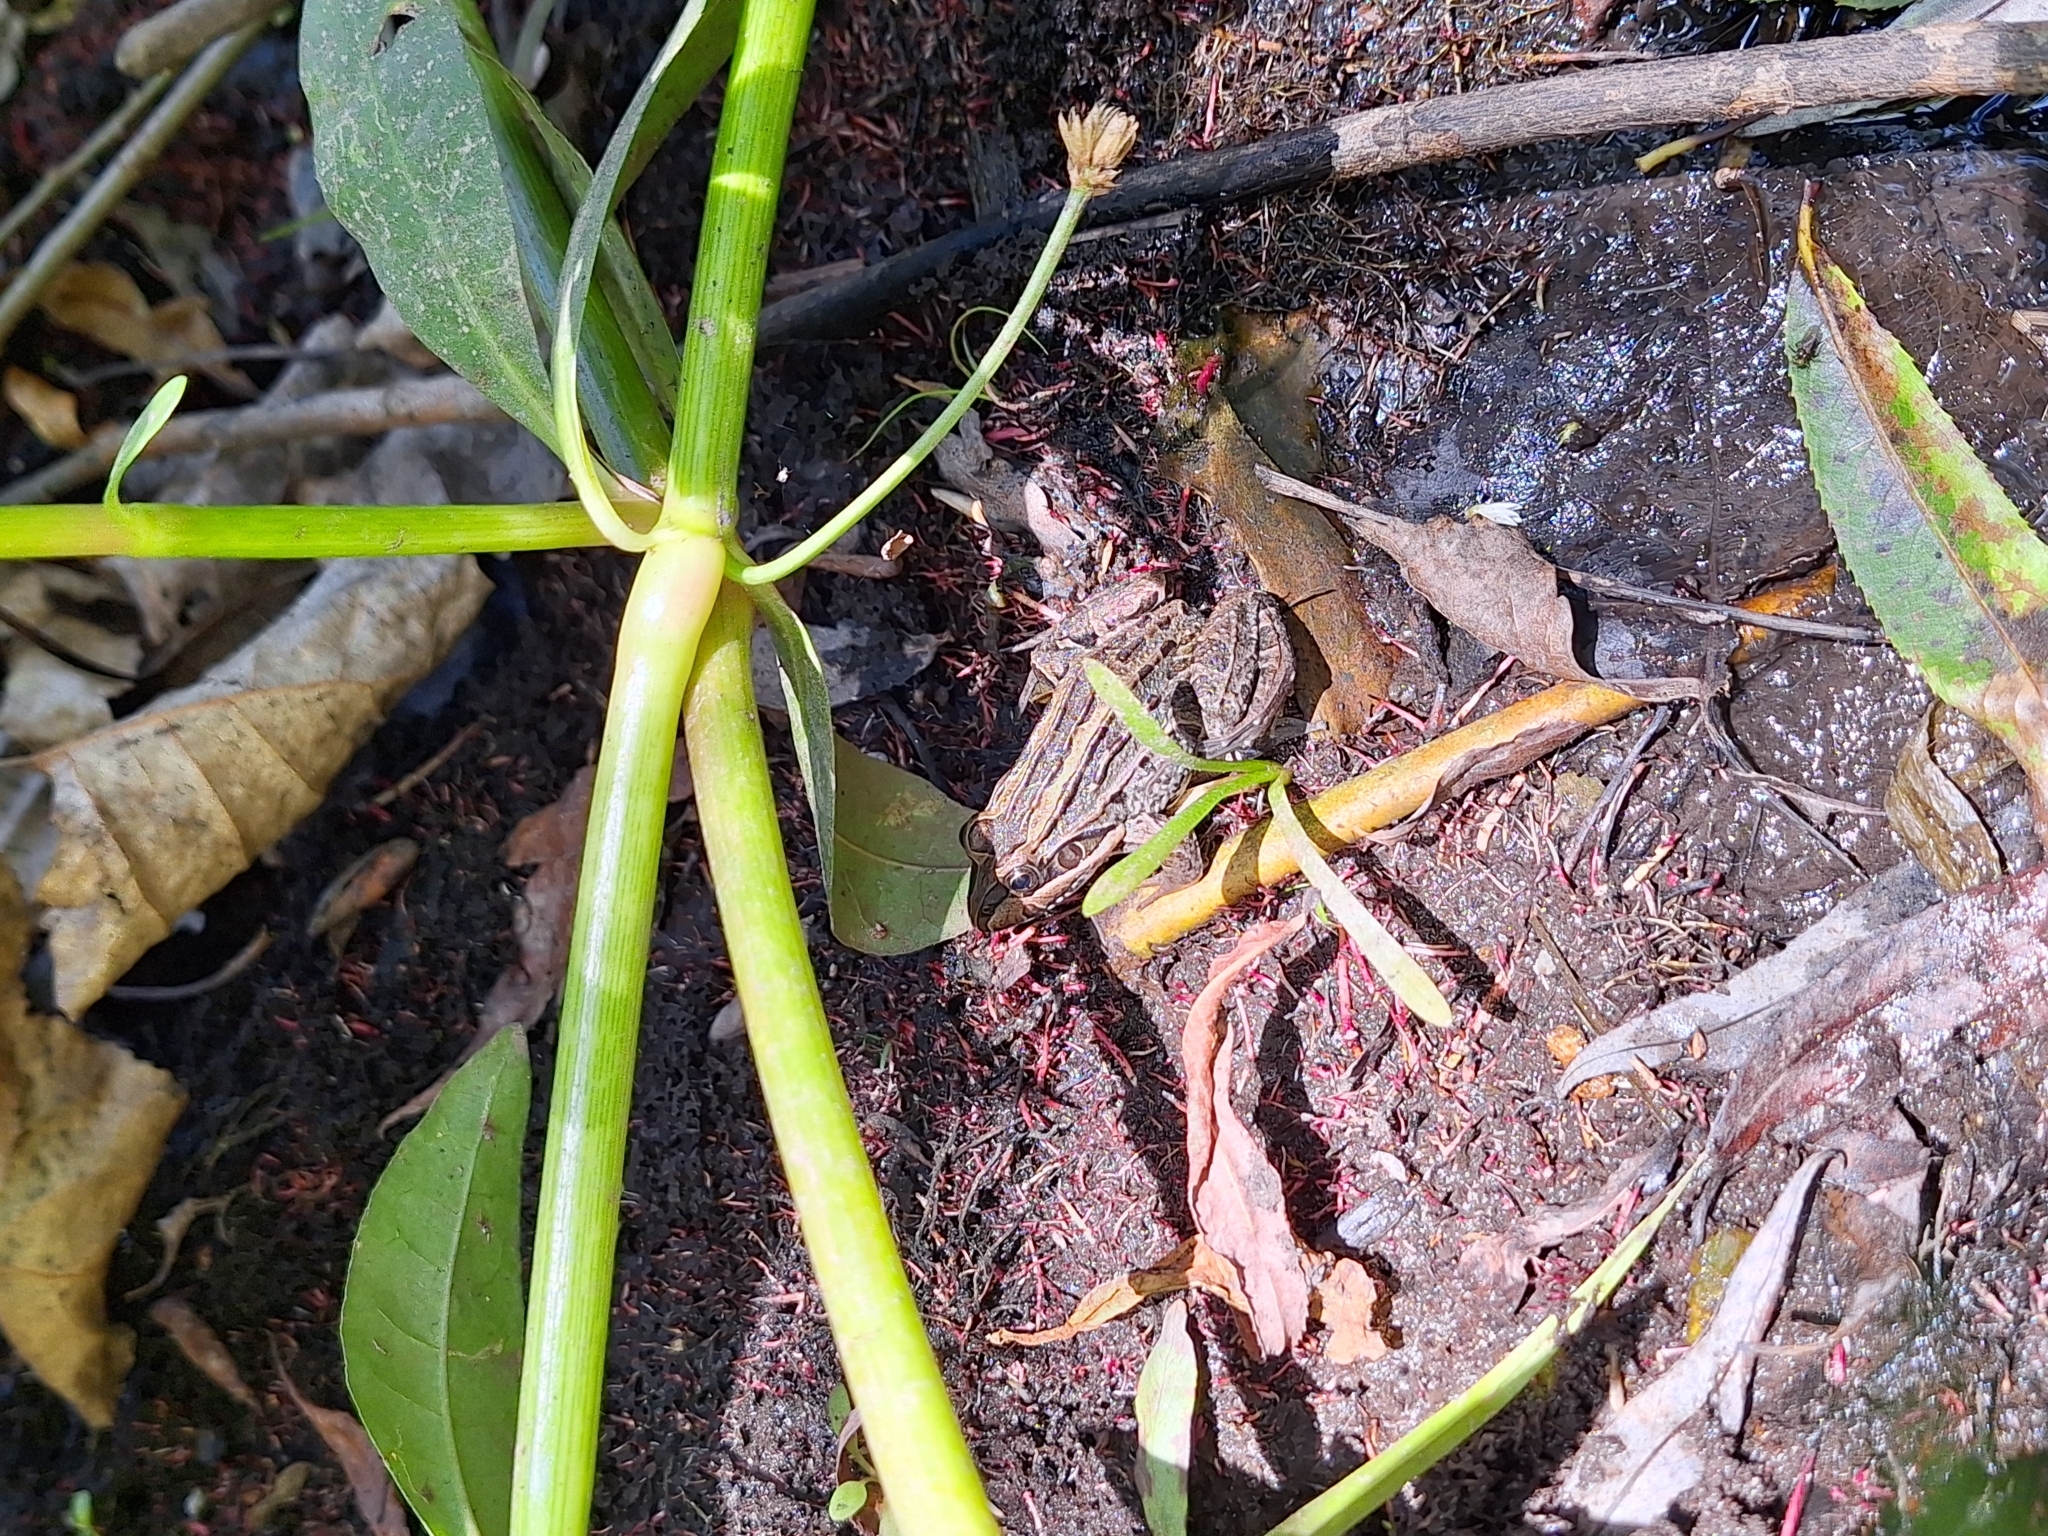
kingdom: Animalia
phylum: Chordata
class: Amphibia
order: Anura
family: Leptodactylidae
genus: Leptodactylus
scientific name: Leptodactylus luctator
